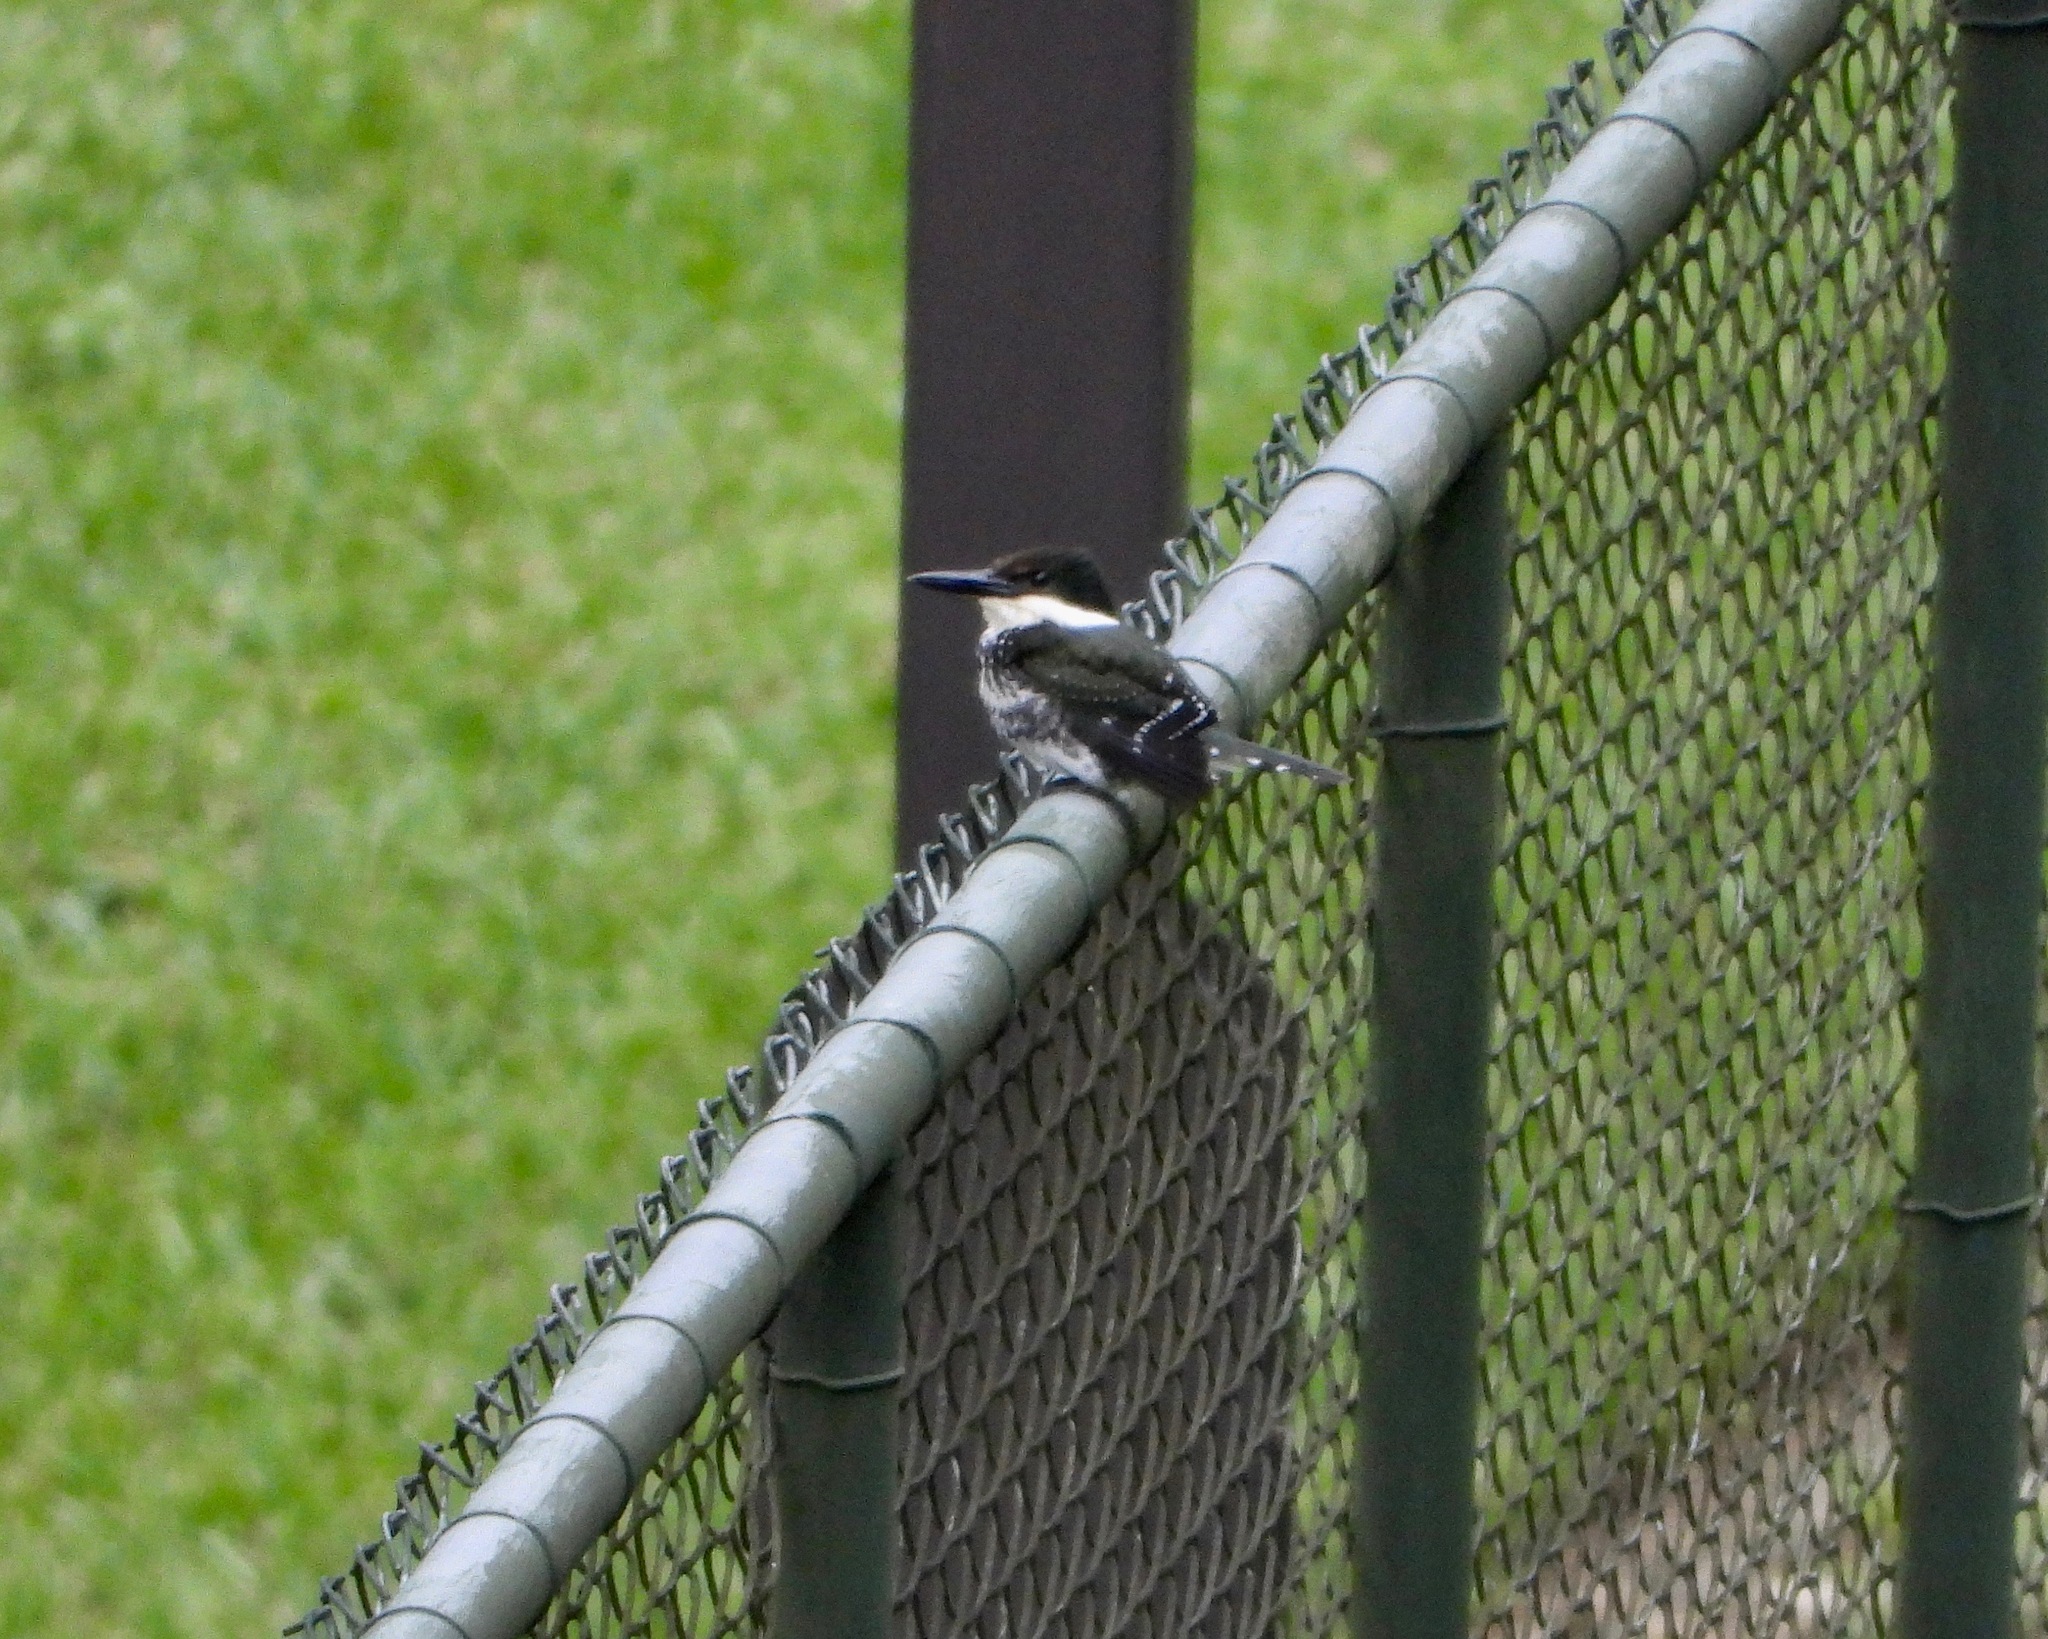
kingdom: Animalia
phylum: Chordata
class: Aves
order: Coraciiformes
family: Alcedinidae
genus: Chloroceryle
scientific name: Chloroceryle americana
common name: Green kingfisher
